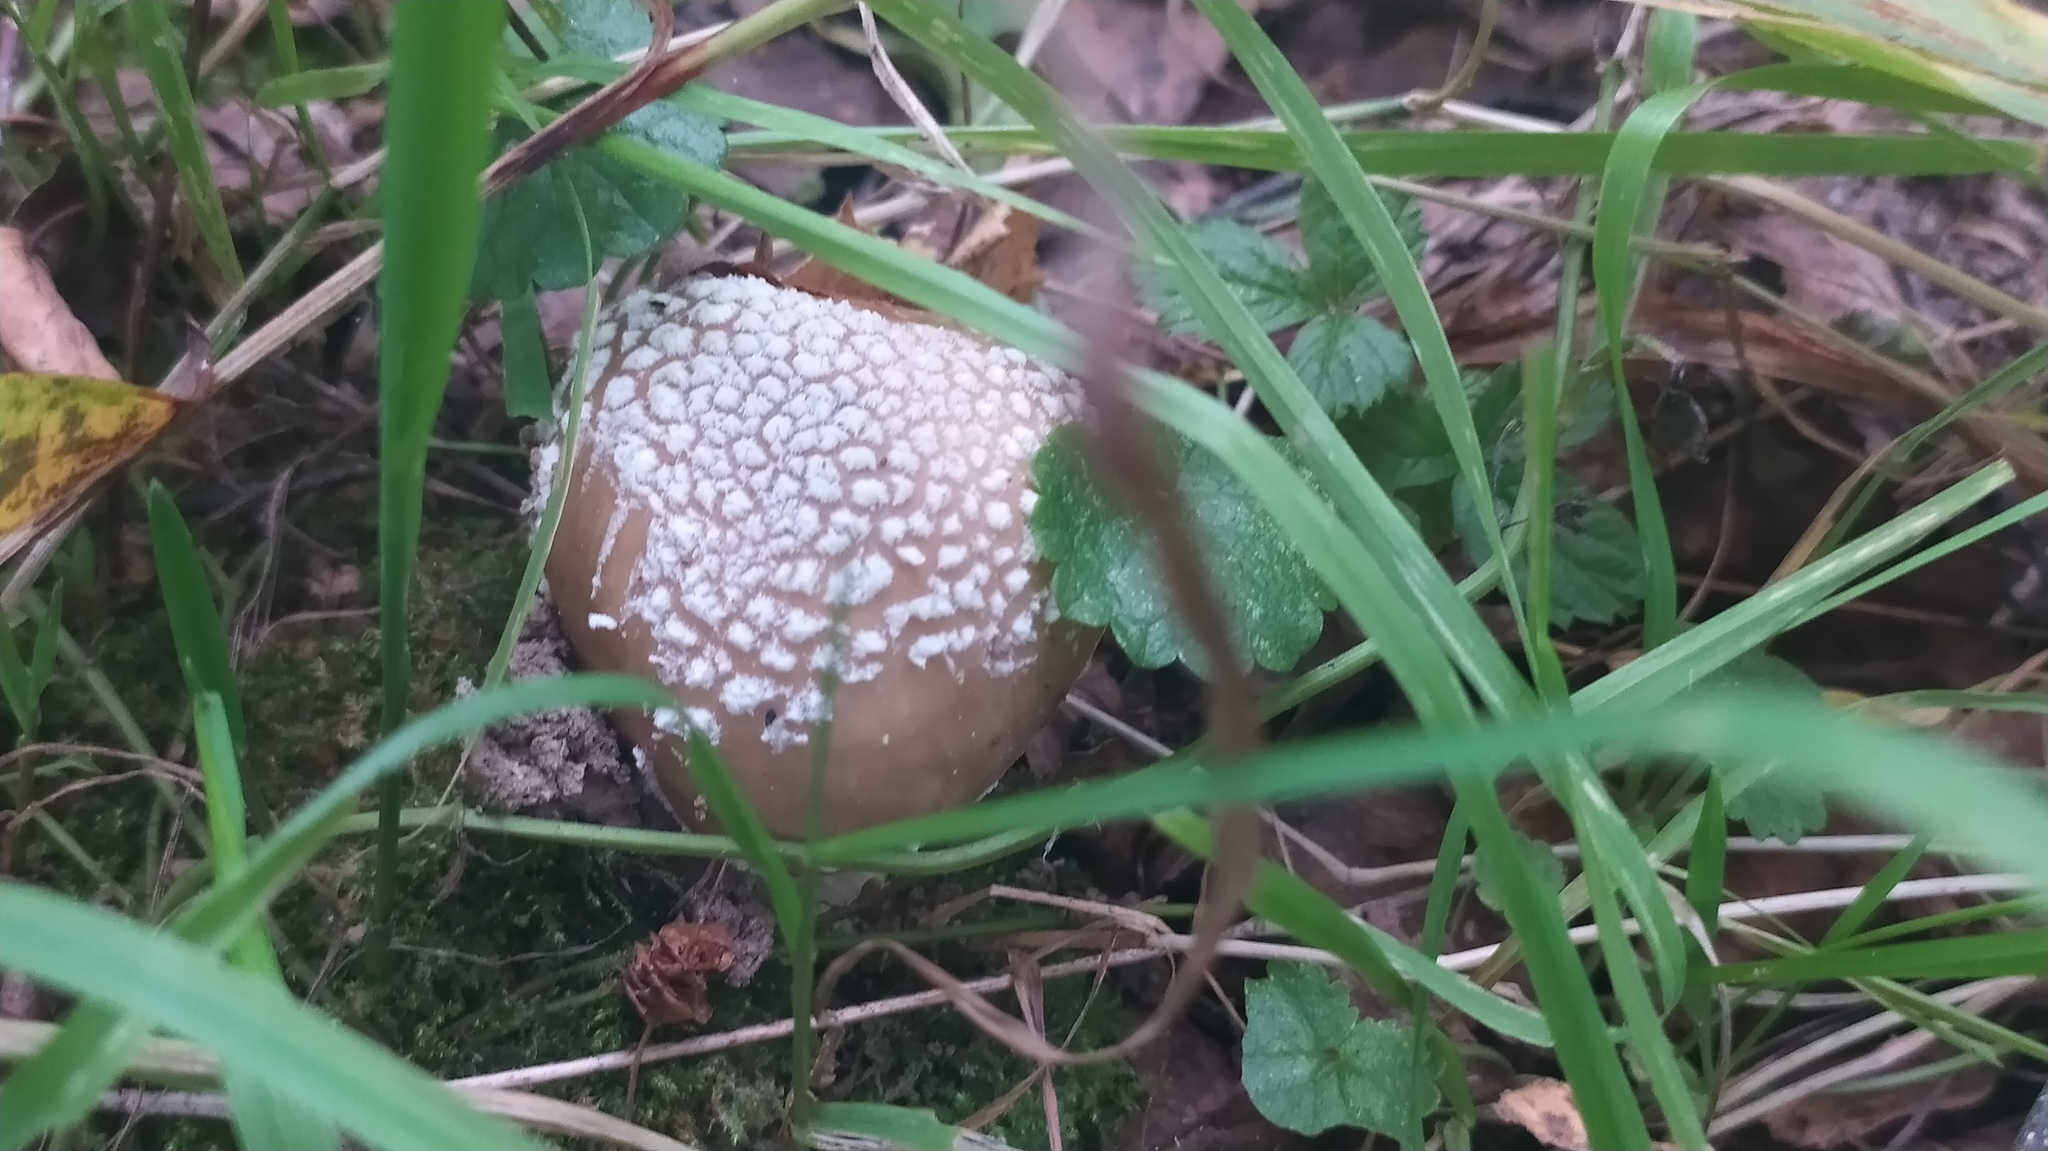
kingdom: Fungi
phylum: Basidiomycota
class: Agaricomycetes
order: Agaricales
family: Amanitaceae
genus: Amanita
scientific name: Amanita pantherina
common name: Panthercap
